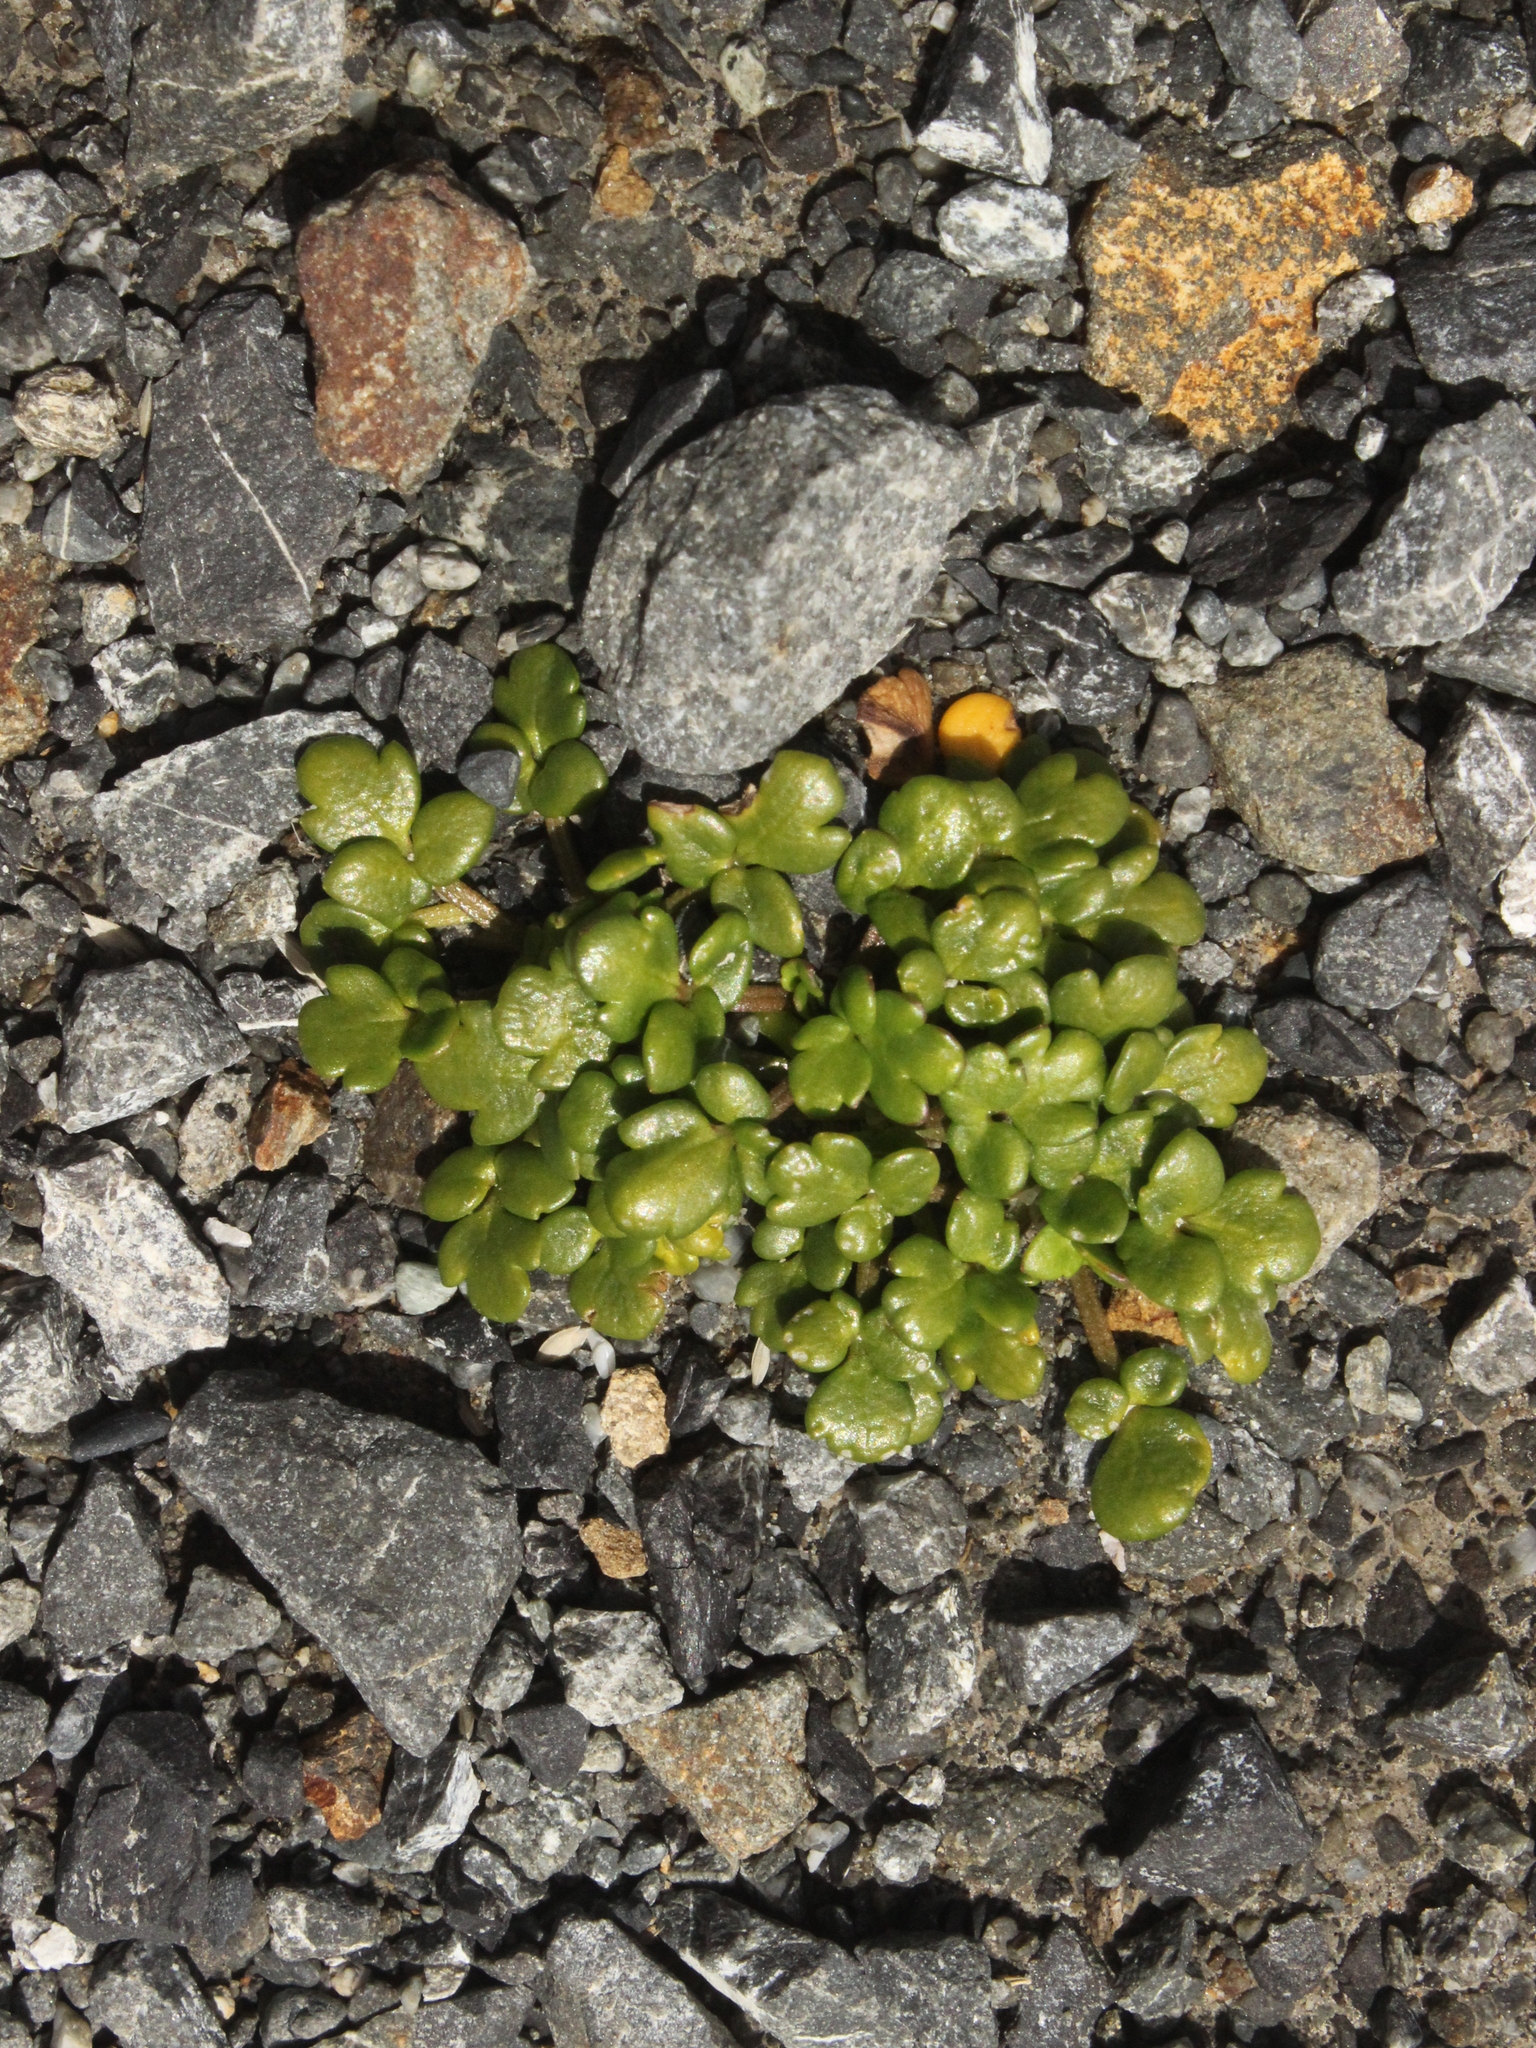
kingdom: Plantae
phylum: Tracheophyta
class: Magnoliopsida
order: Ranunculales
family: Ranunculaceae
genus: Ranunculus
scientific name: Ranunculus acaulis
